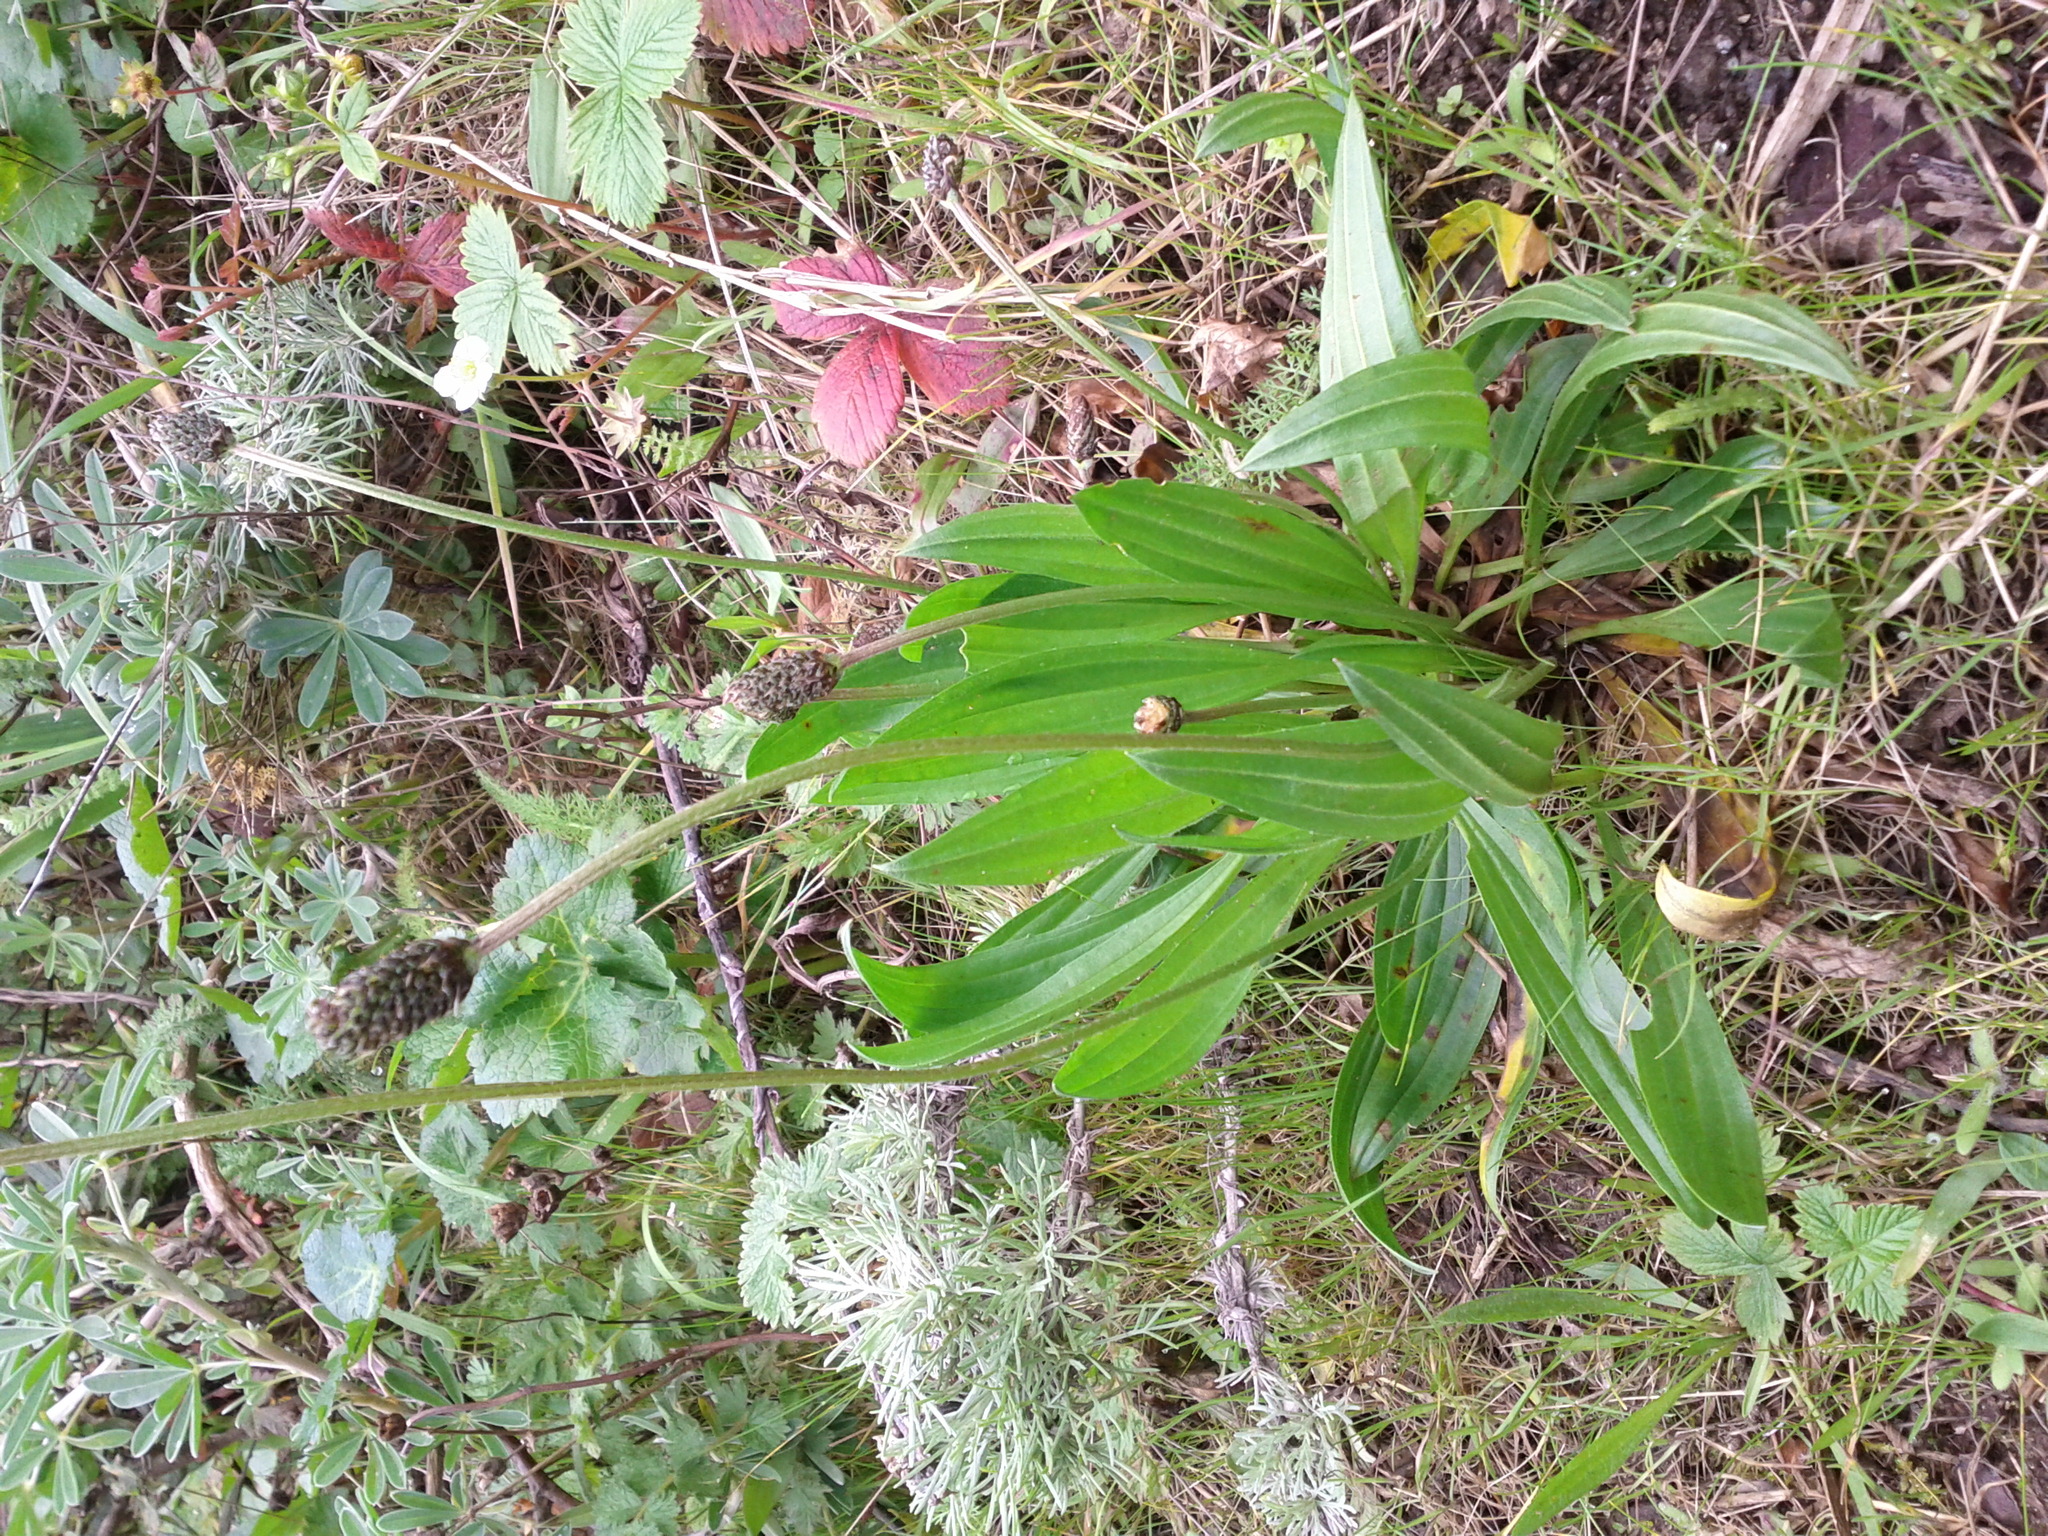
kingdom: Plantae
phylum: Tracheophyta
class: Magnoliopsida
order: Lamiales
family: Plantaginaceae
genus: Plantago
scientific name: Plantago lanceolata
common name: Ribwort plantain
